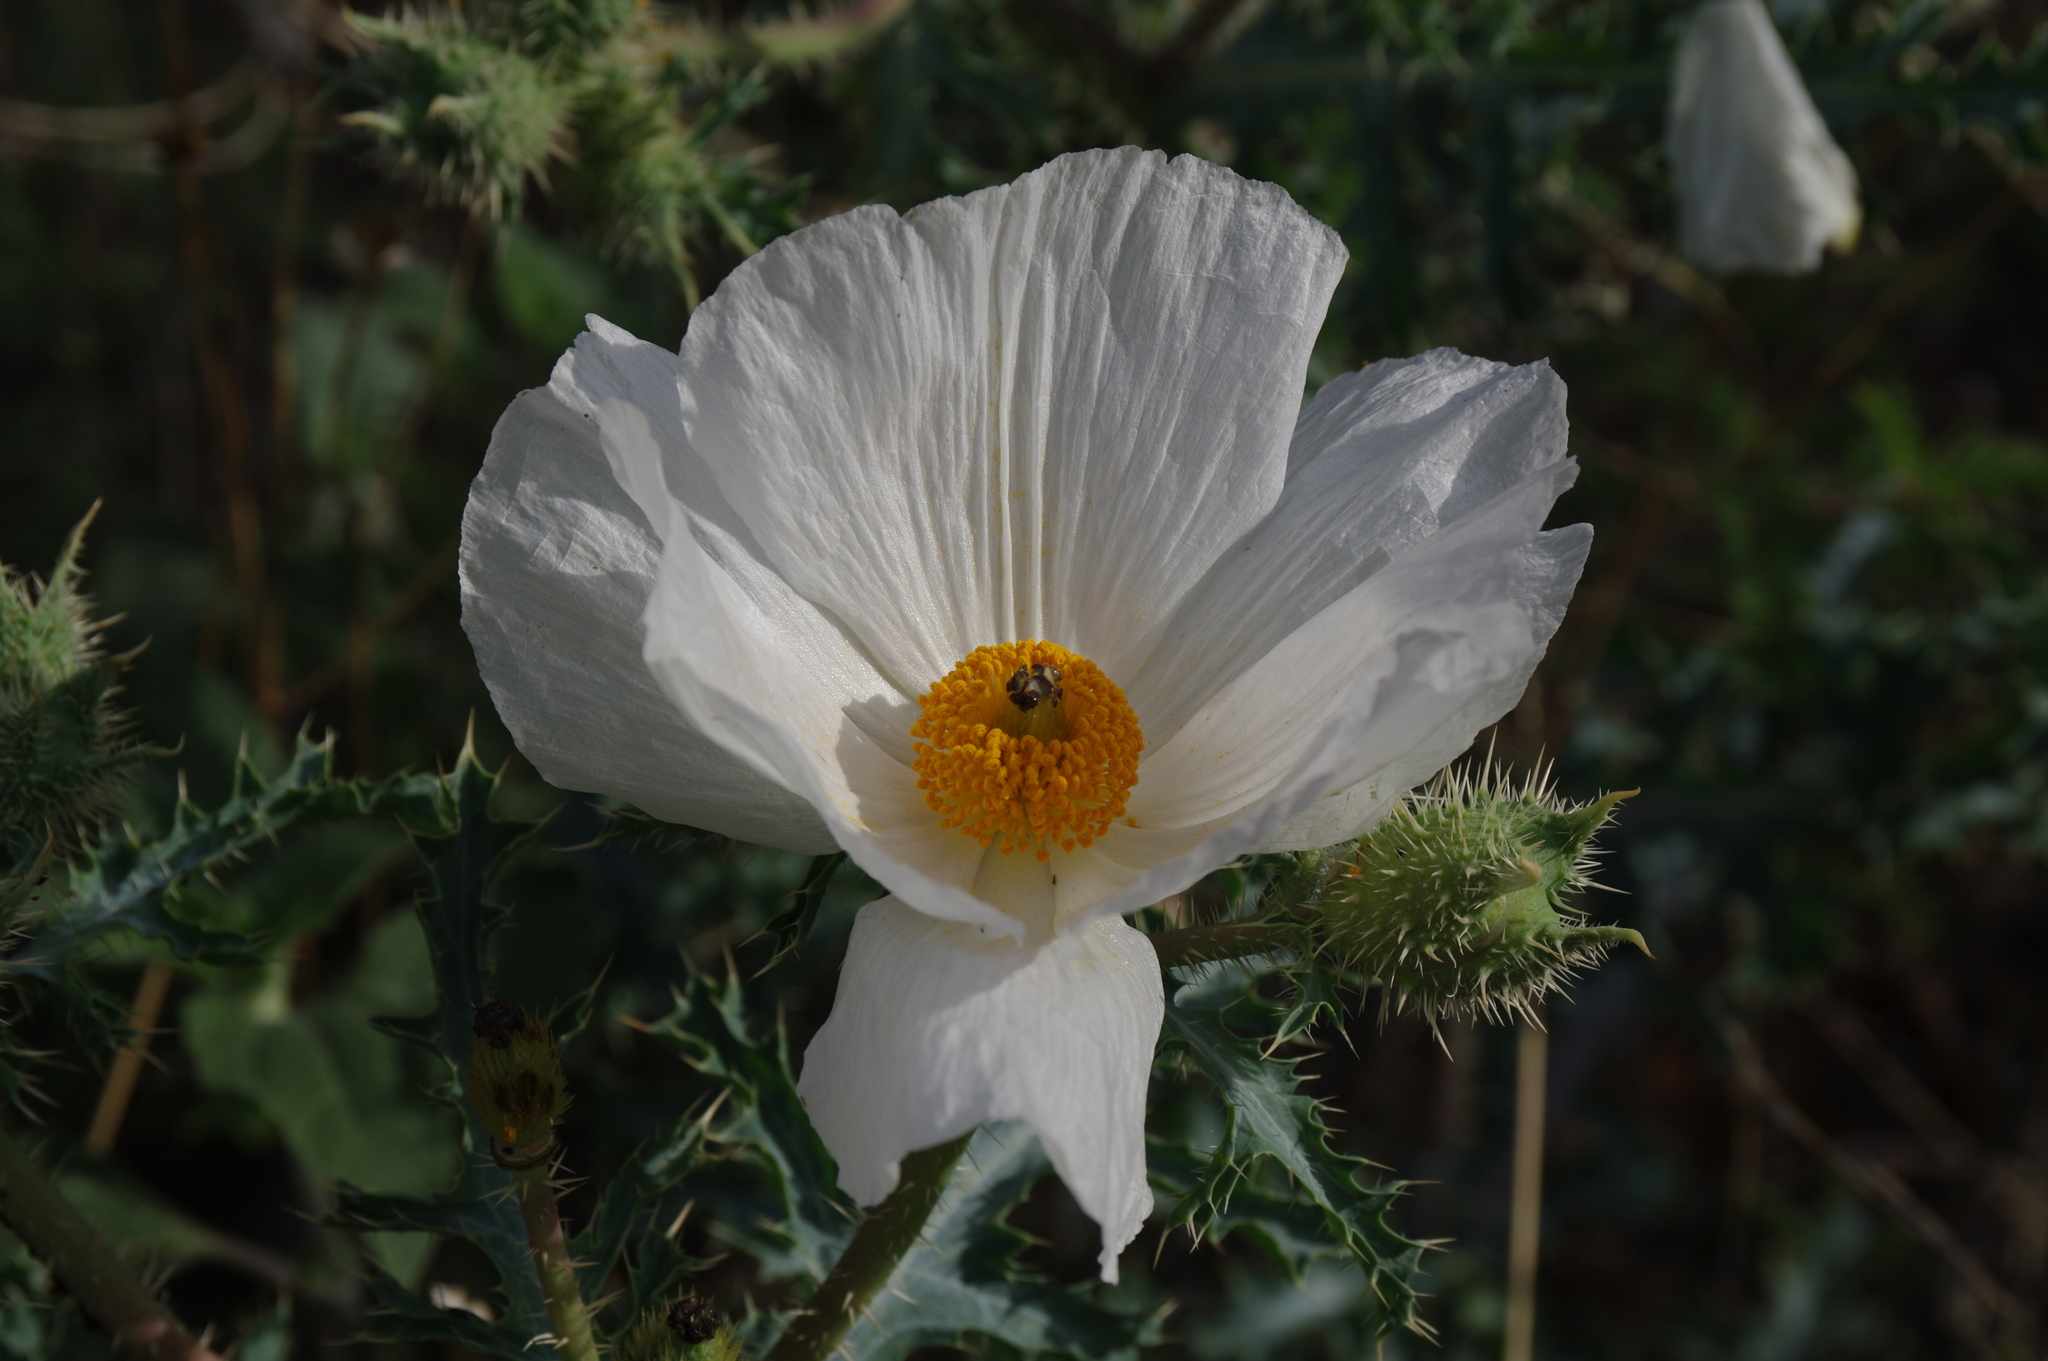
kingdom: Plantae
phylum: Tracheophyta
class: Magnoliopsida
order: Ranunculales
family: Papaveraceae
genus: Argemone
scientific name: Argemone pleiacantha
